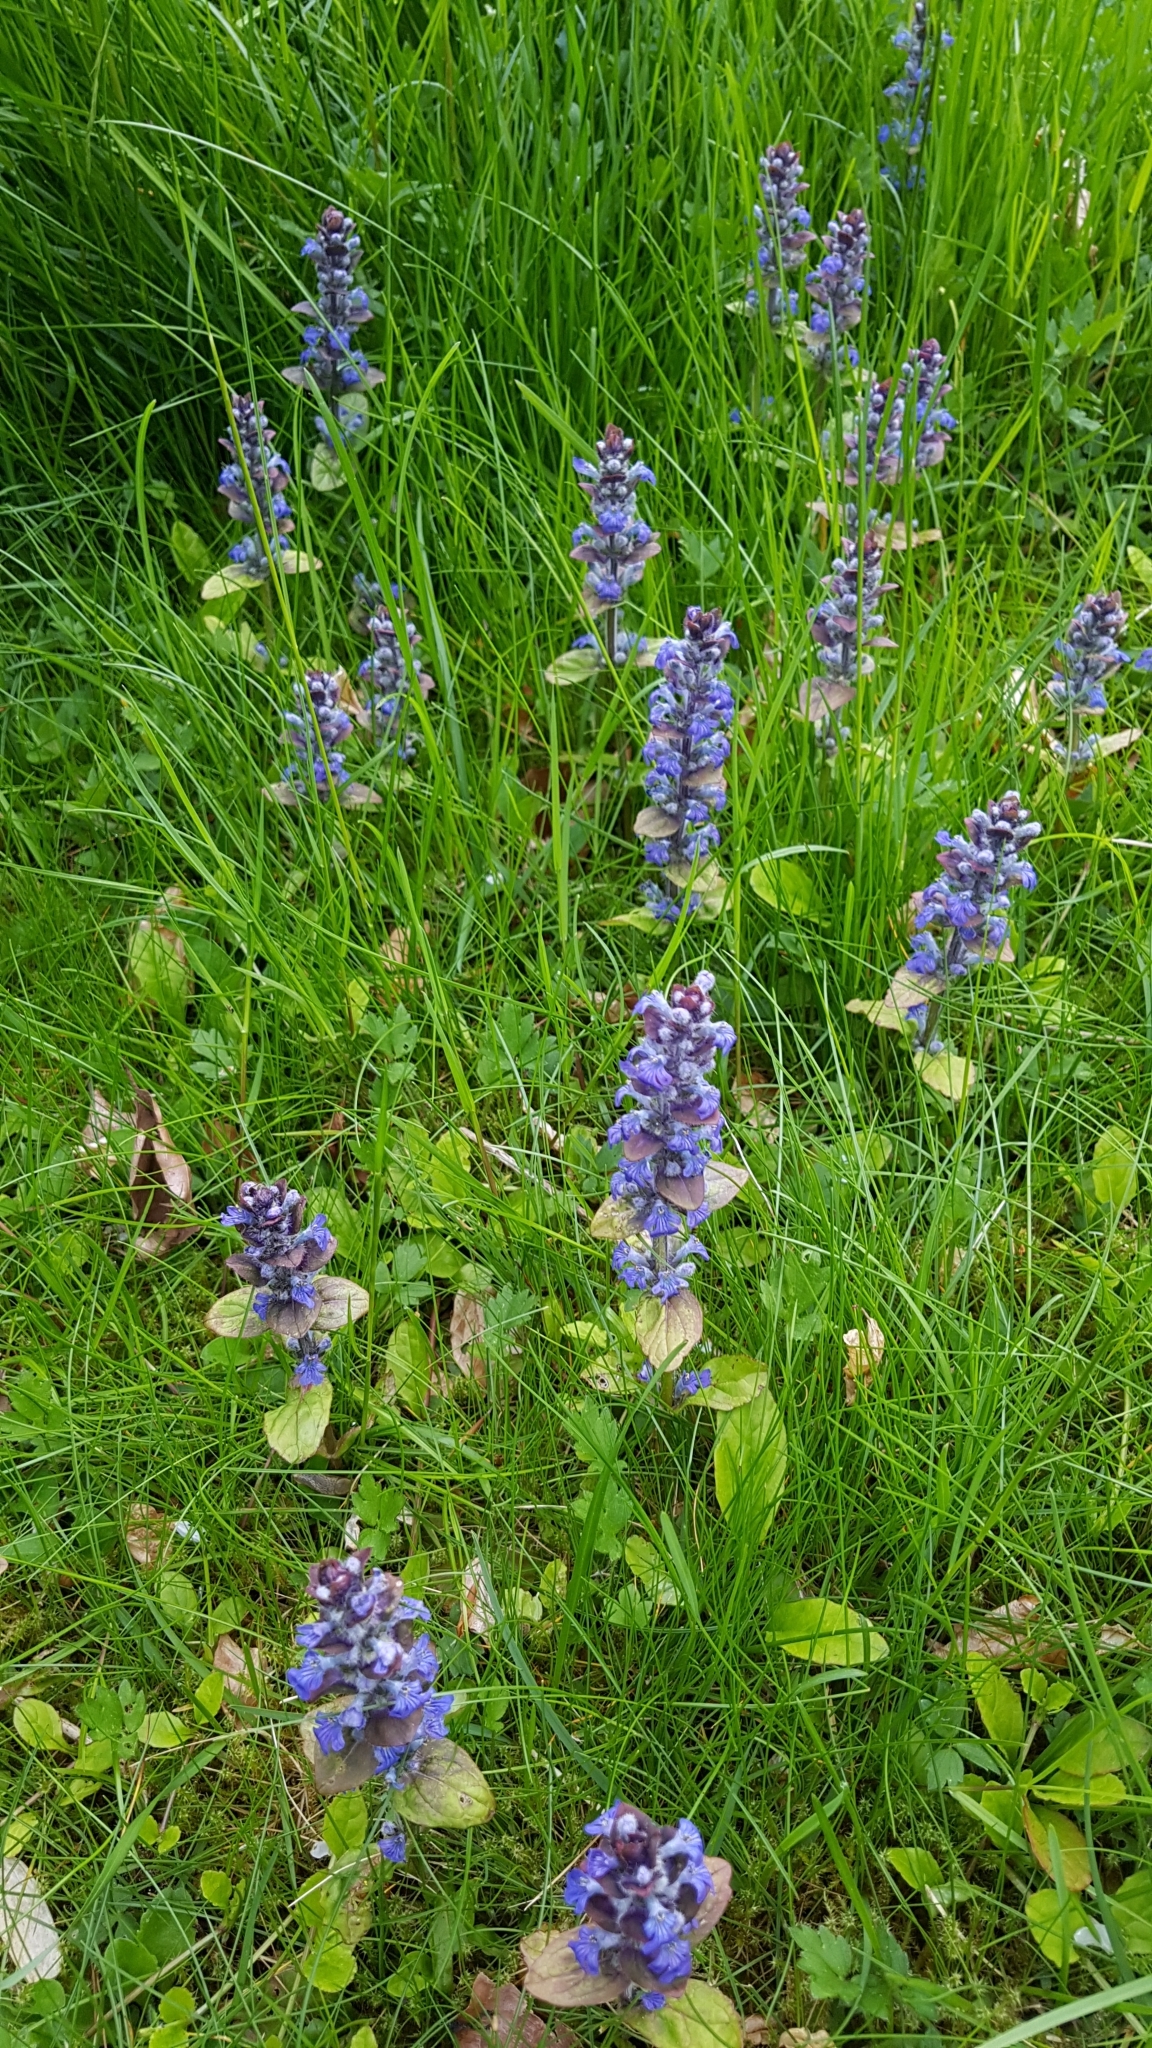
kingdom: Plantae
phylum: Tracheophyta
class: Magnoliopsida
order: Lamiales
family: Lamiaceae
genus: Ajuga
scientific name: Ajuga reptans
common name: Bugle
